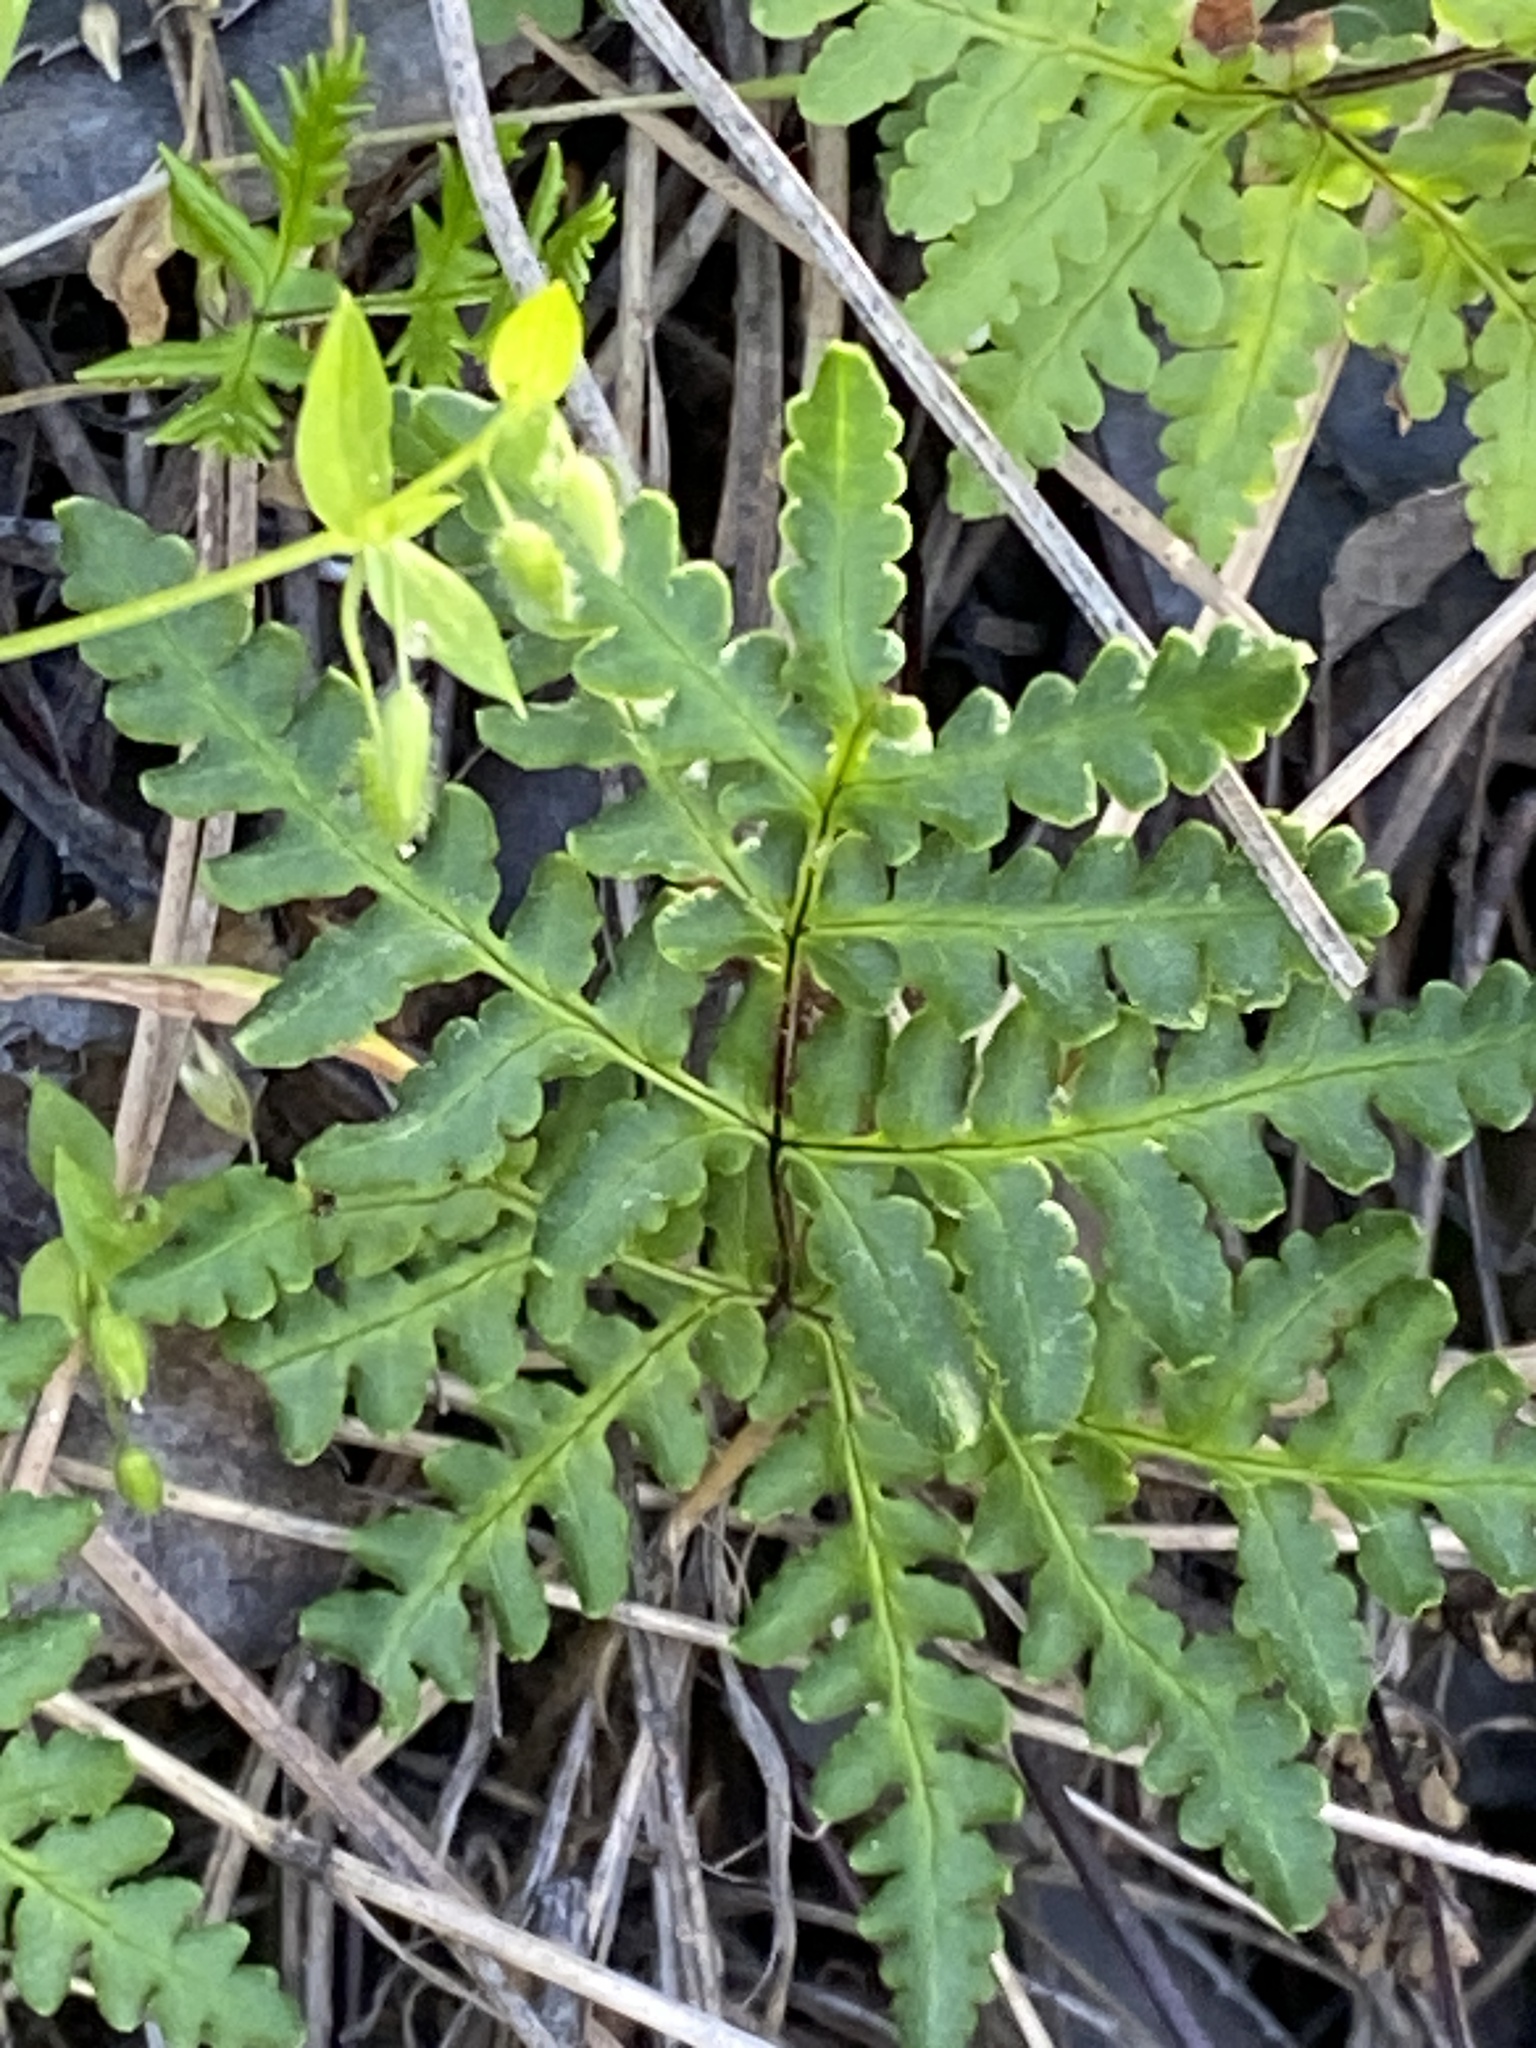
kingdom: Plantae
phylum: Tracheophyta
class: Polypodiopsida
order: Polypodiales
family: Pteridaceae
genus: Pentagramma
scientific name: Pentagramma triangularis
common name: Gold fern
